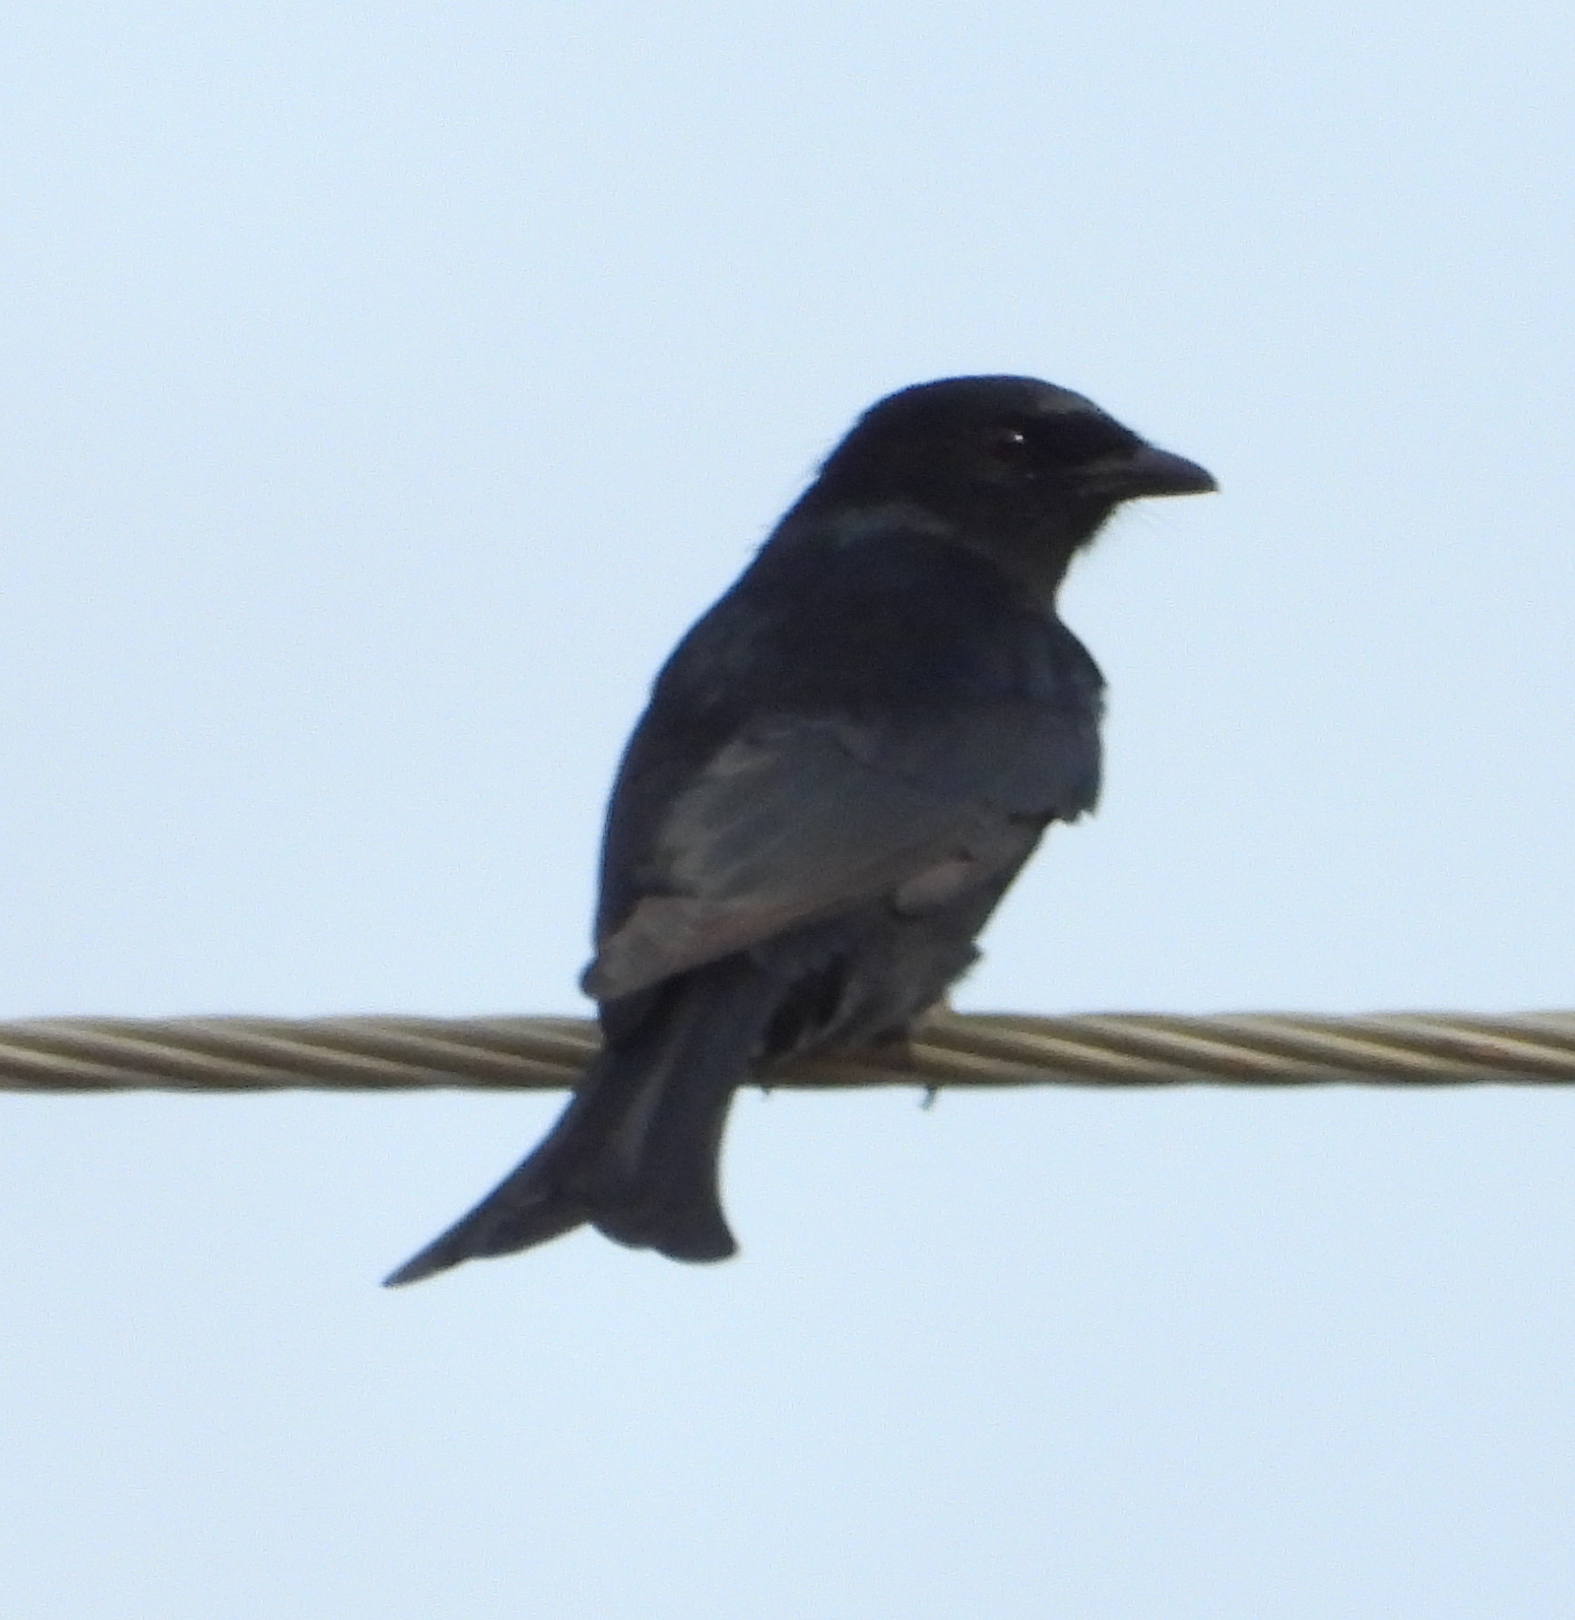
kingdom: Animalia
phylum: Chordata
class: Aves
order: Passeriformes
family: Dicruridae
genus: Dicrurus
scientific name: Dicrurus adsimilis
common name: Fork-tailed drongo
